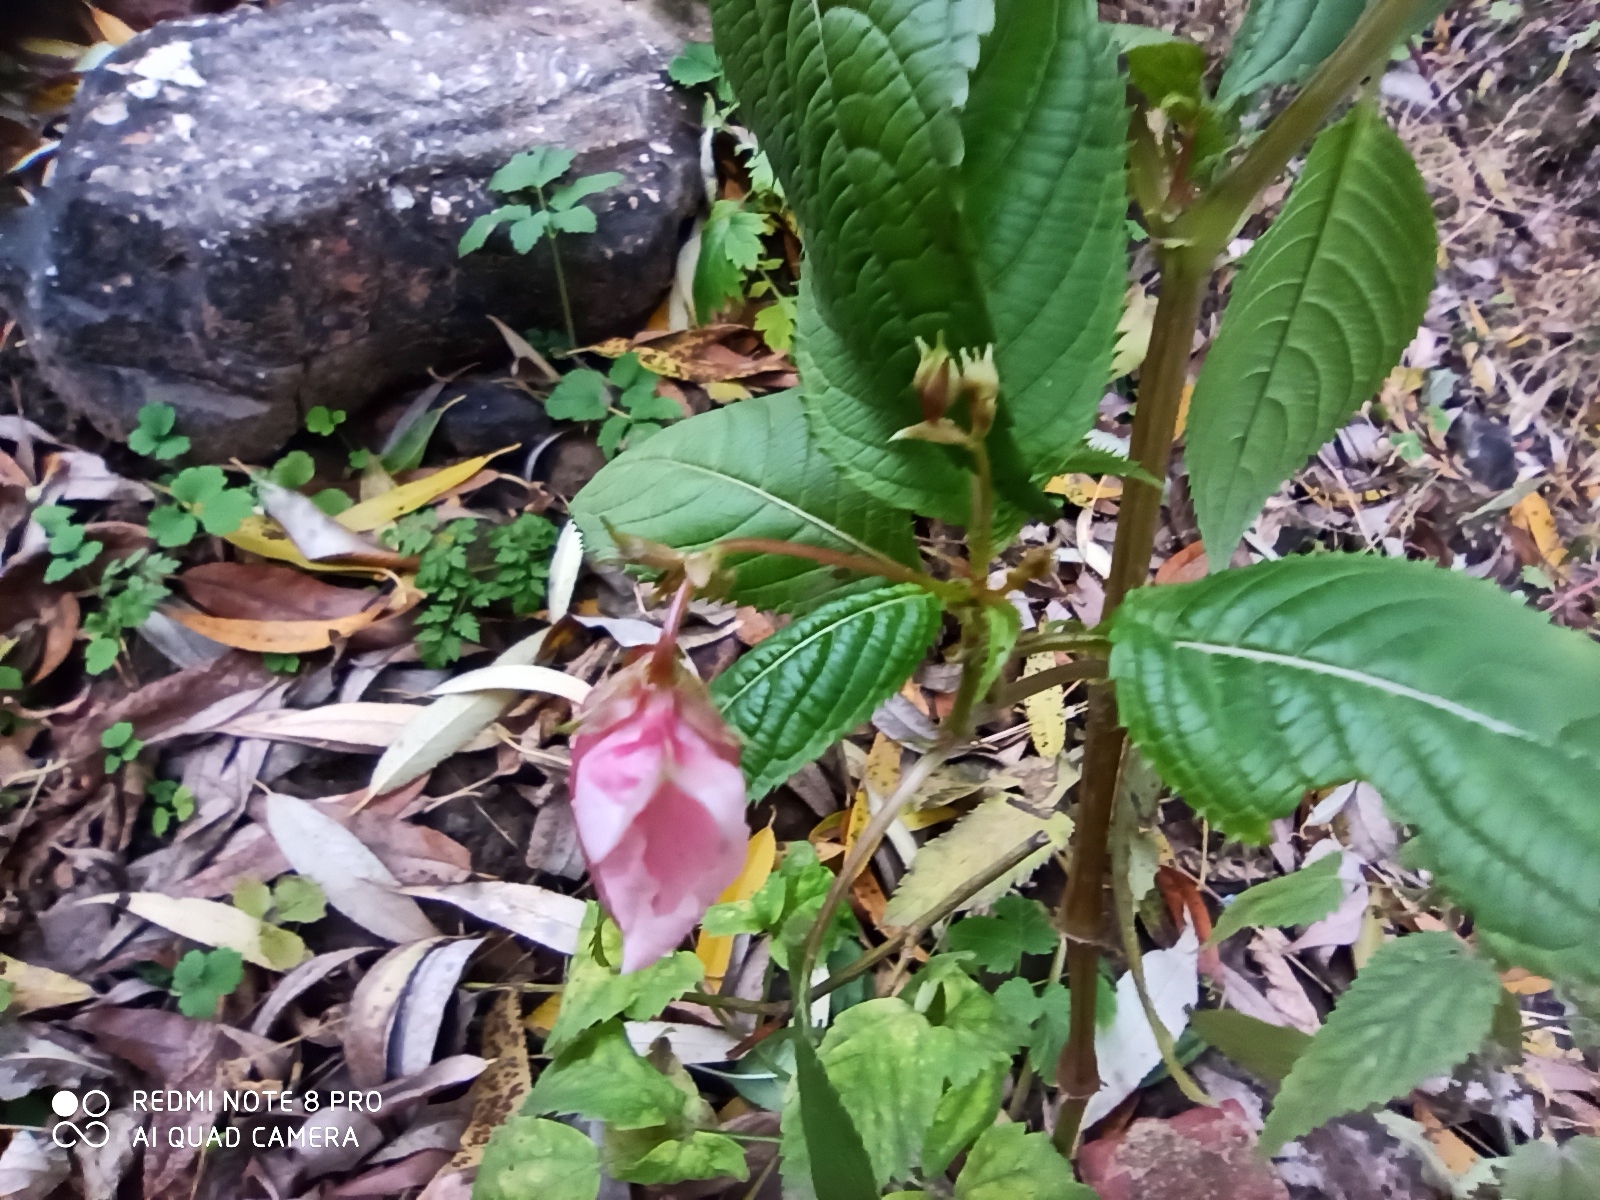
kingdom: Plantae
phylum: Tracheophyta
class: Magnoliopsida
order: Ericales
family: Balsaminaceae
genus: Impatiens
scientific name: Impatiens glandulifera
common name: Himalayan balsam
